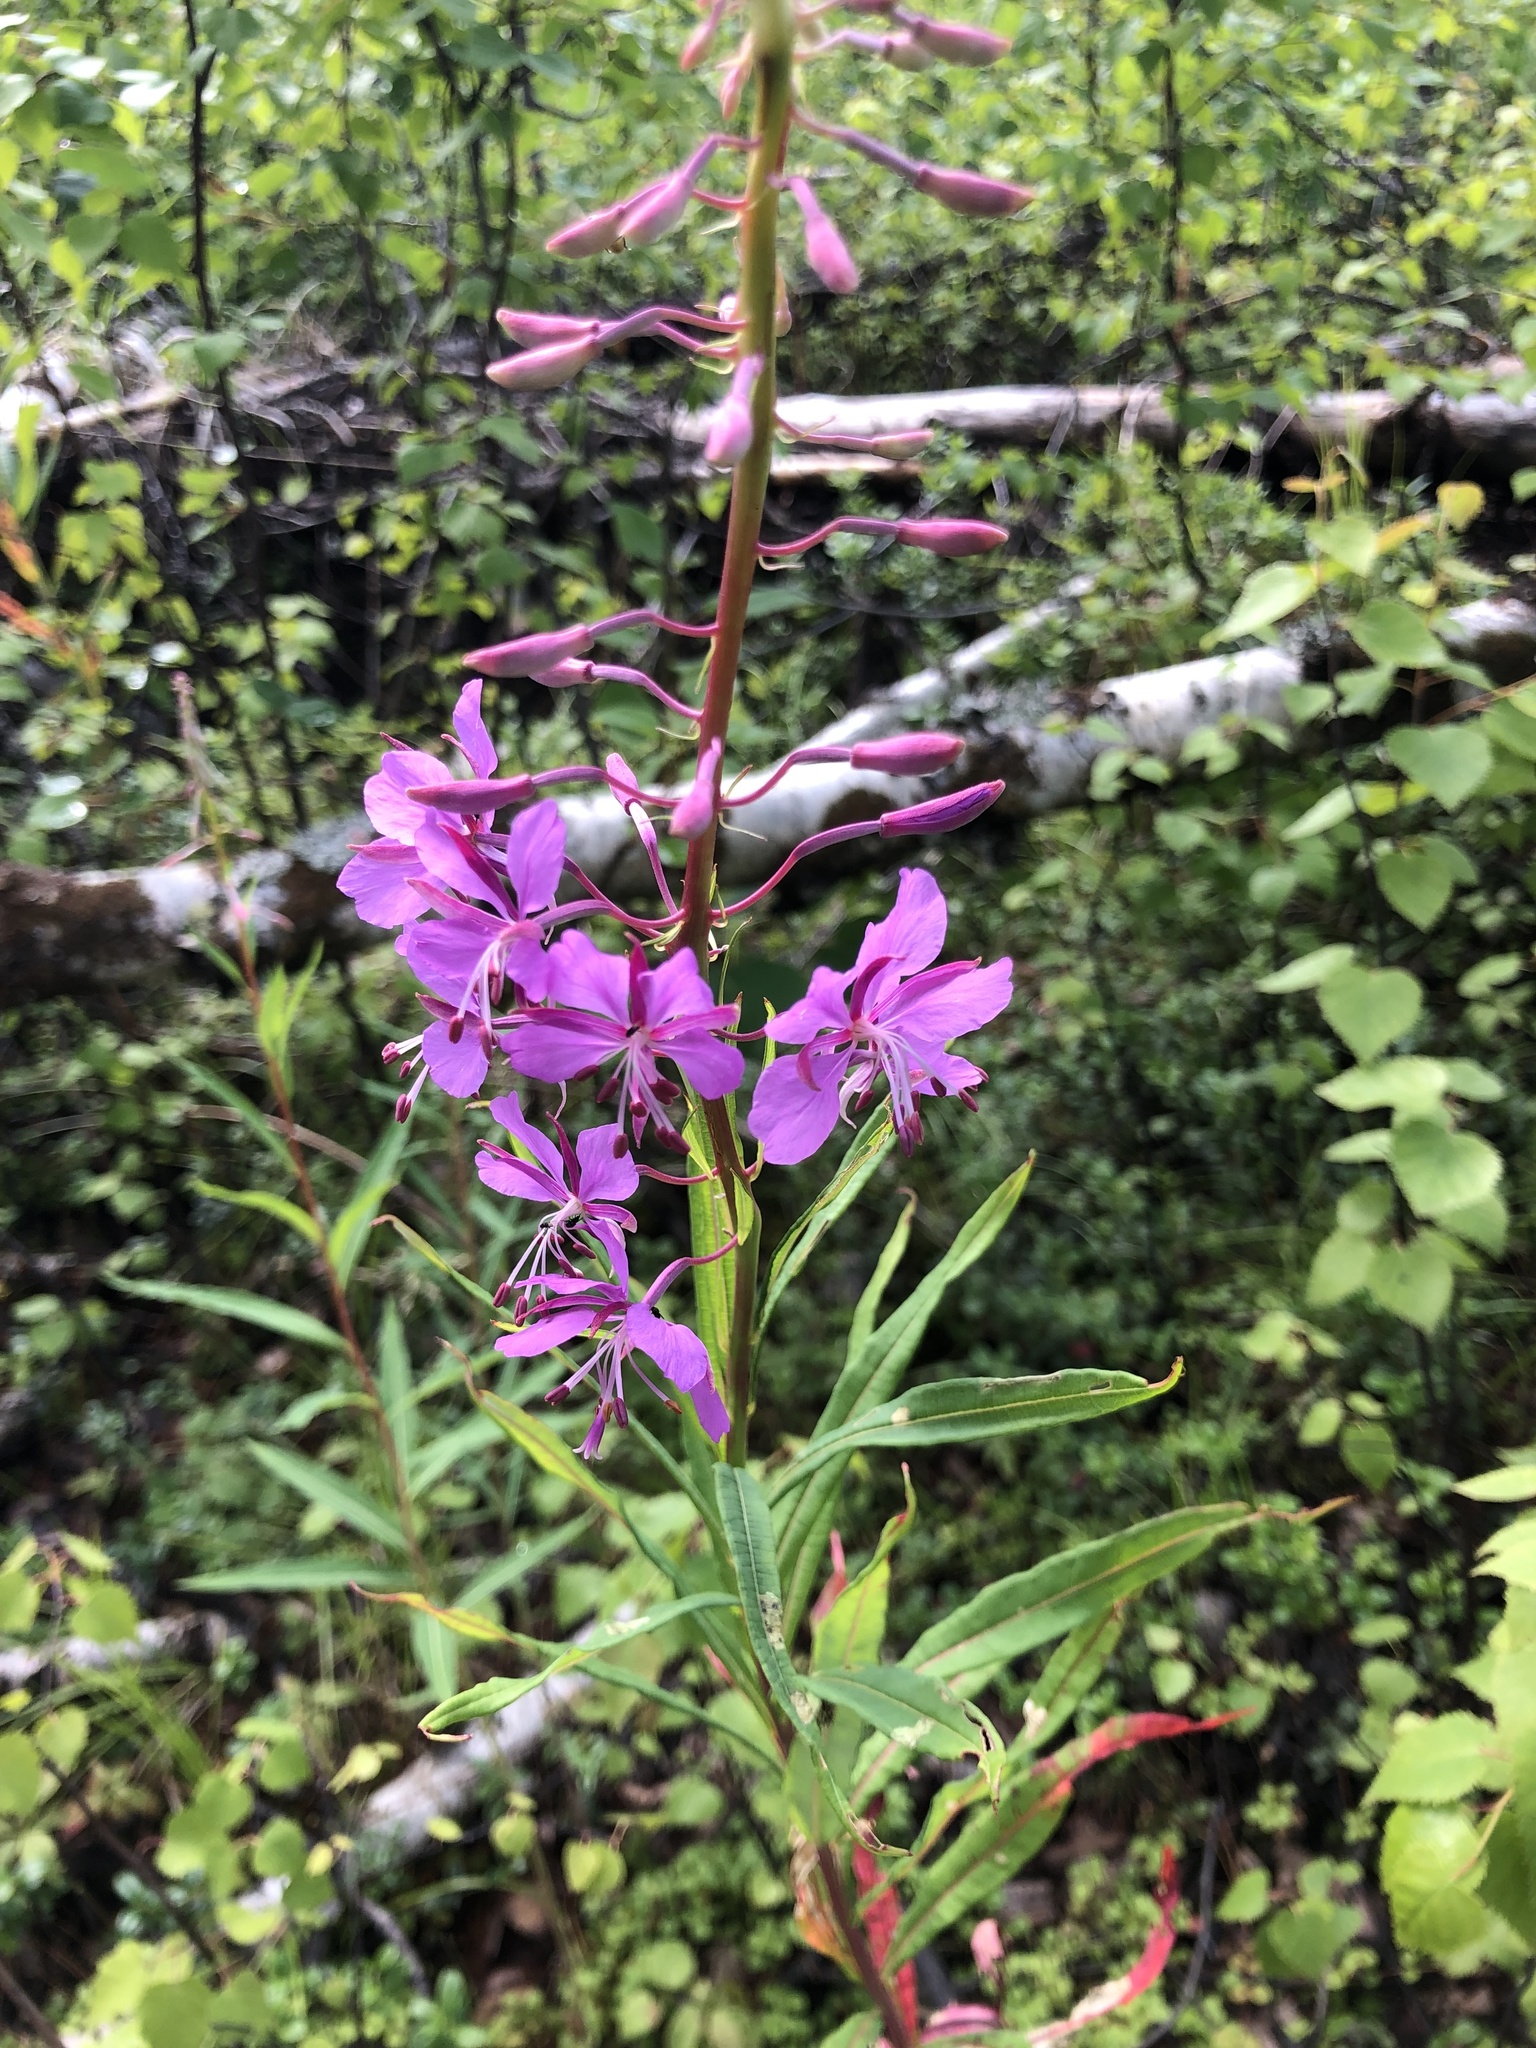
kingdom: Plantae
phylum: Tracheophyta
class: Magnoliopsida
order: Myrtales
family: Onagraceae
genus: Chamaenerion
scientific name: Chamaenerion angustifolium
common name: Fireweed
